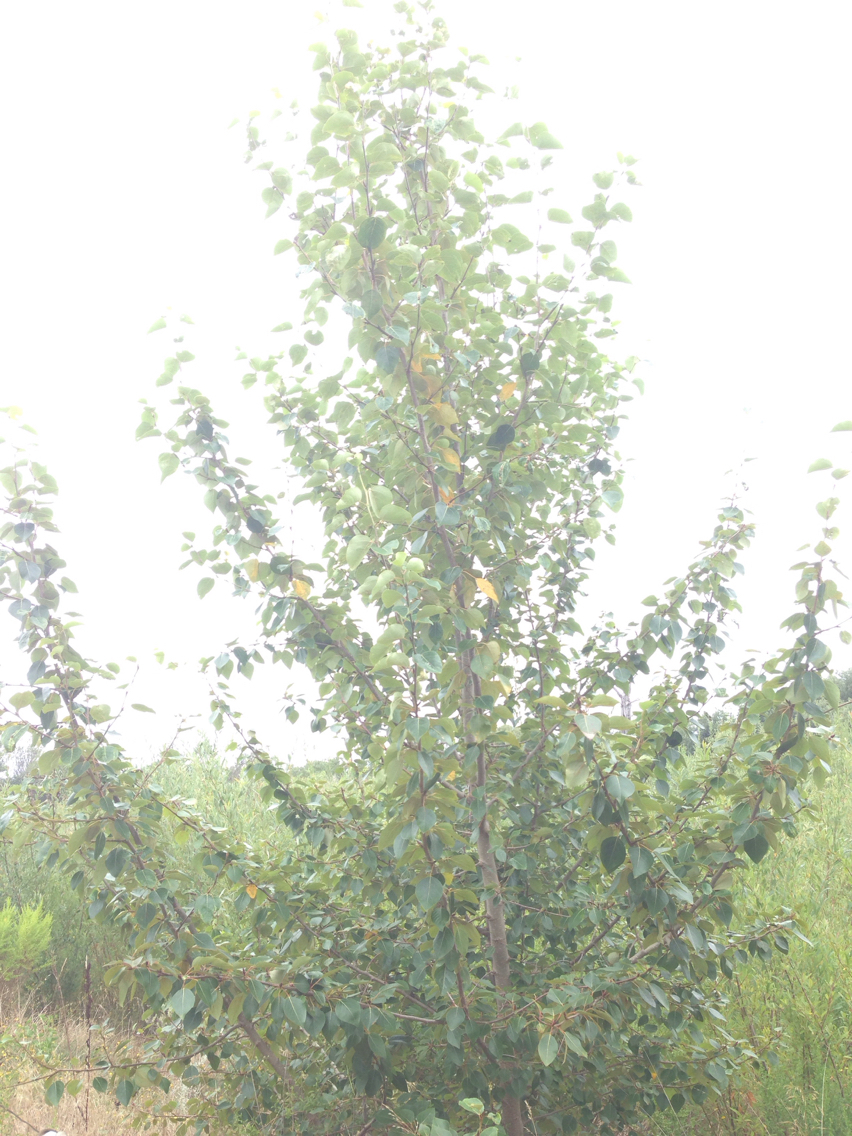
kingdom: Plantae
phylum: Tracheophyta
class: Magnoliopsida
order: Malpighiales
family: Salicaceae
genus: Populus
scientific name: Populus trichocarpa
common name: Black cottonwood
